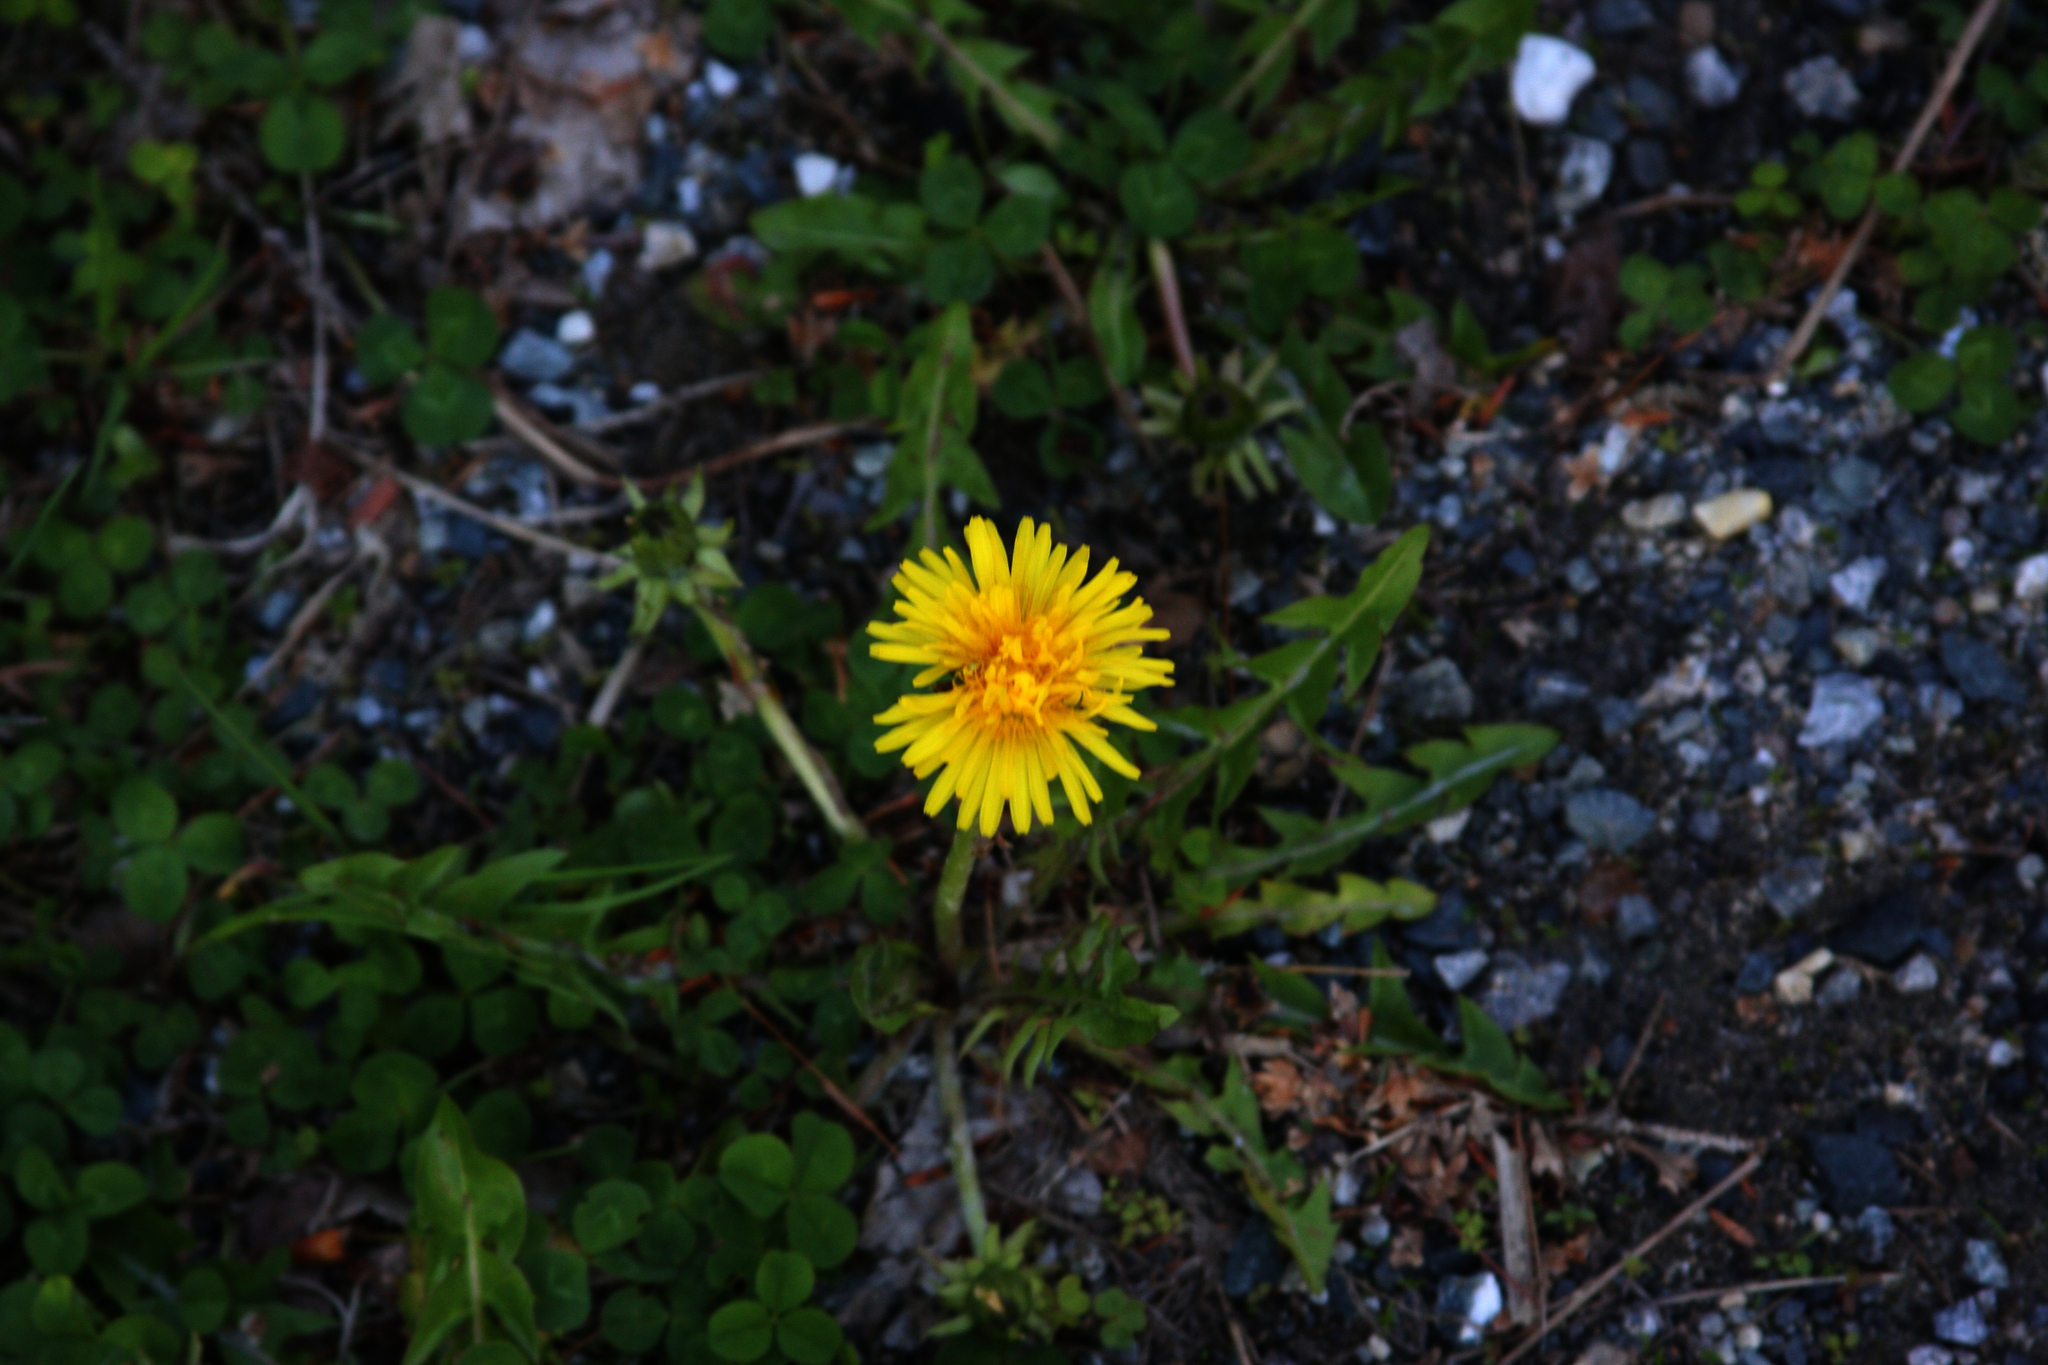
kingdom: Plantae
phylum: Tracheophyta
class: Magnoliopsida
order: Asterales
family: Asteraceae
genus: Taraxacum
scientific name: Taraxacum officinale
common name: Common dandelion
